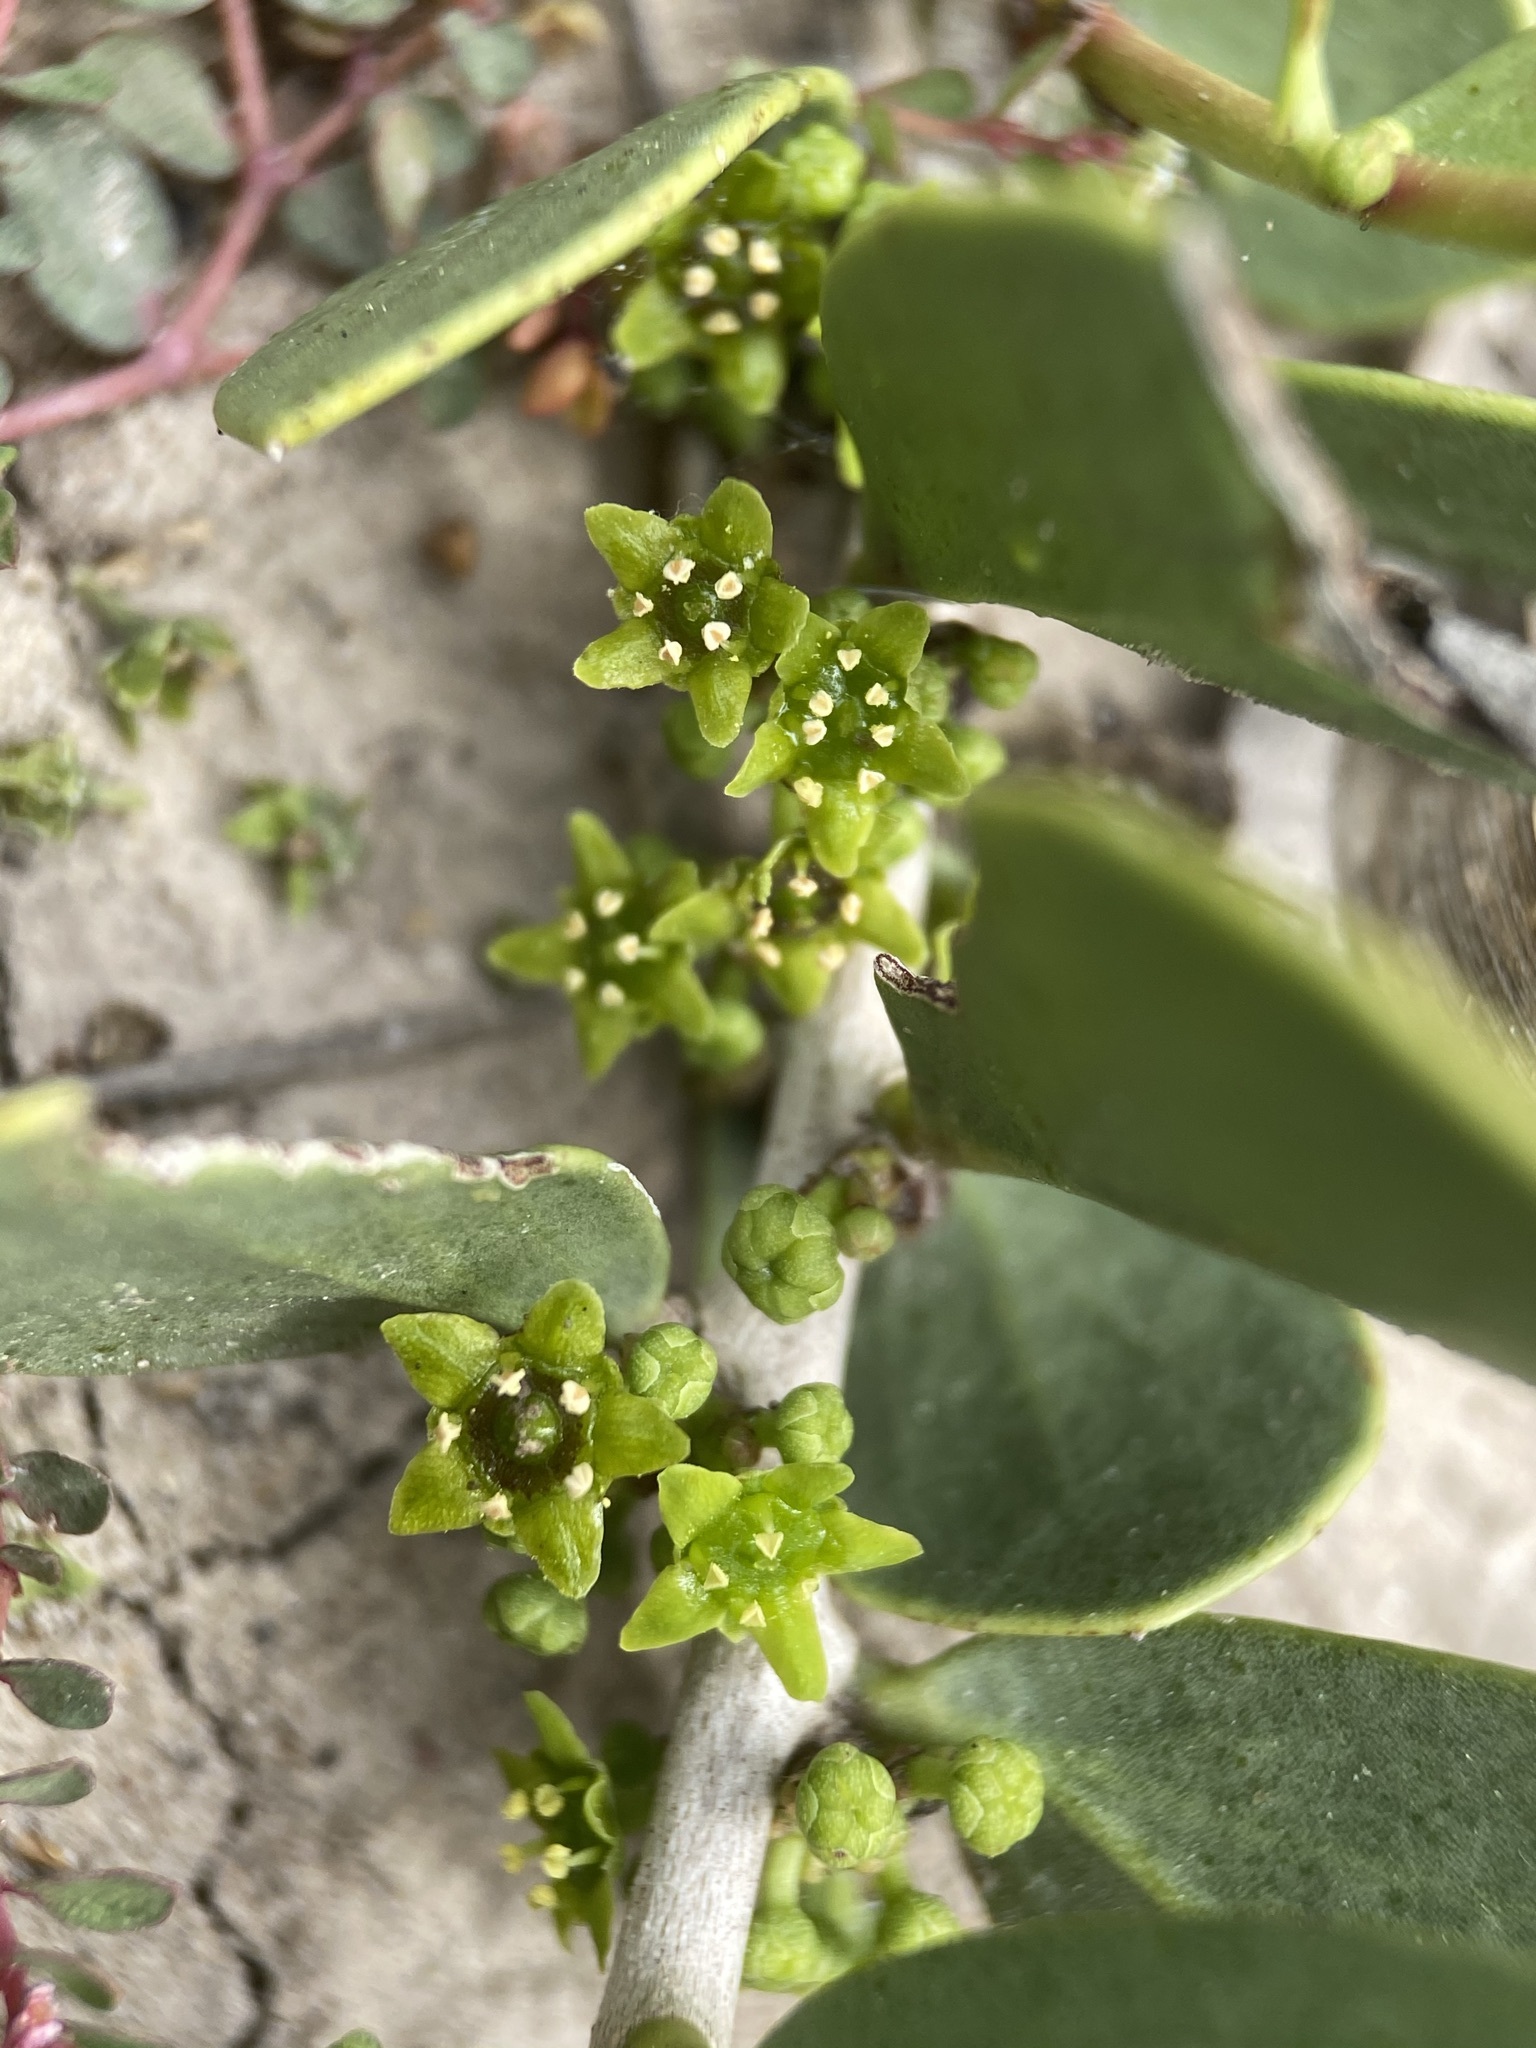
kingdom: Plantae
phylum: Tracheophyta
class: Magnoliopsida
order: Celastrales
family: Celastraceae
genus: Tricerma
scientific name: Tricerma phyllanthoides
